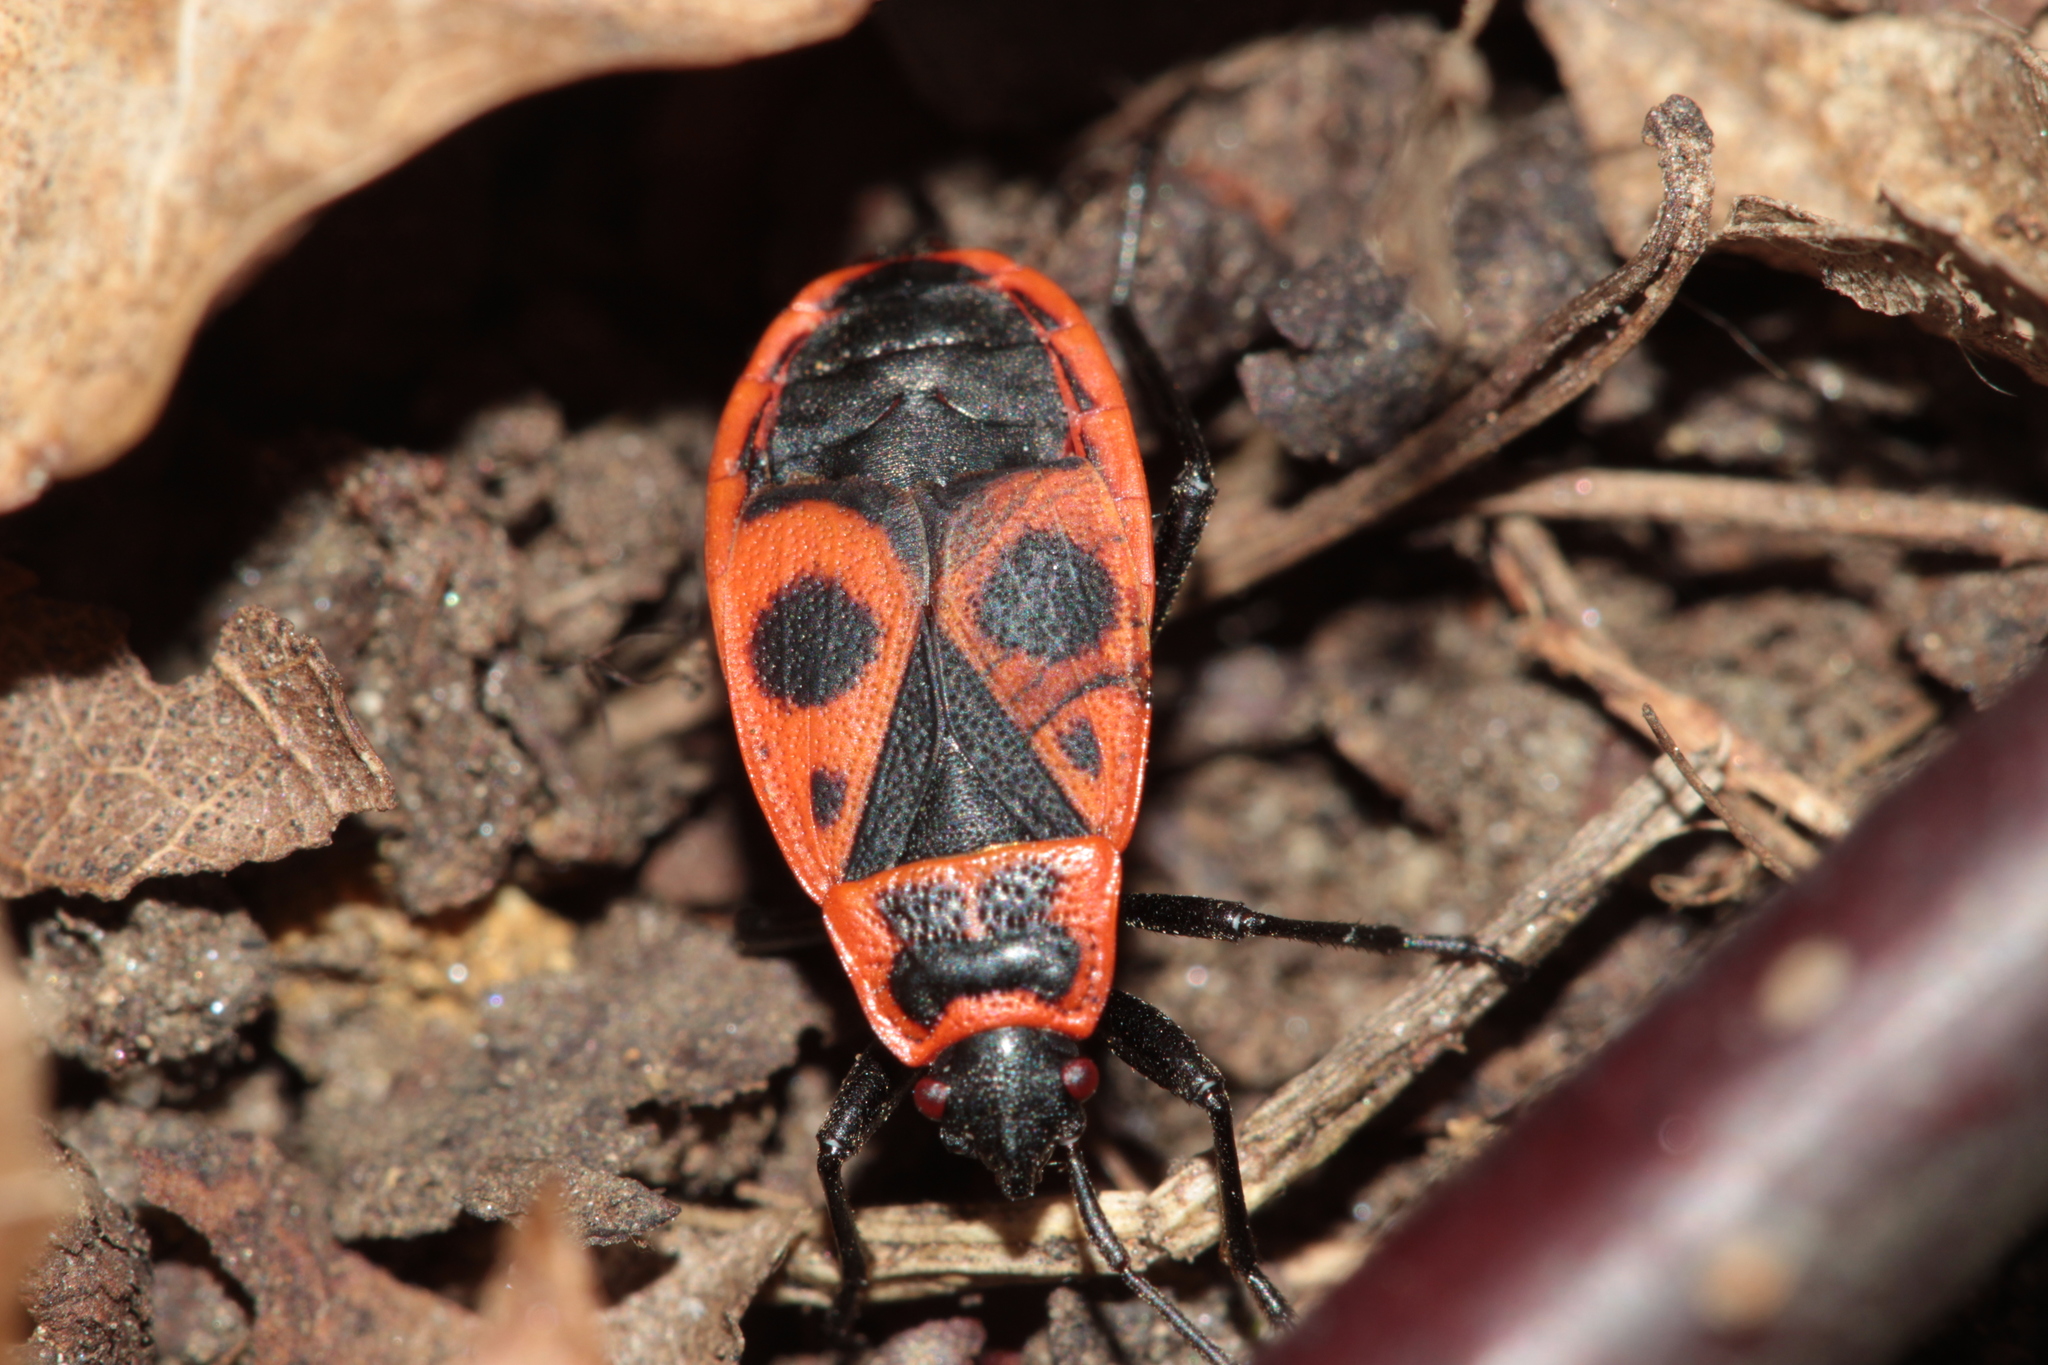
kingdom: Animalia
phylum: Arthropoda
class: Insecta
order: Hemiptera
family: Pyrrhocoridae
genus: Pyrrhocoris
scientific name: Pyrrhocoris apterus
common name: Firebug
